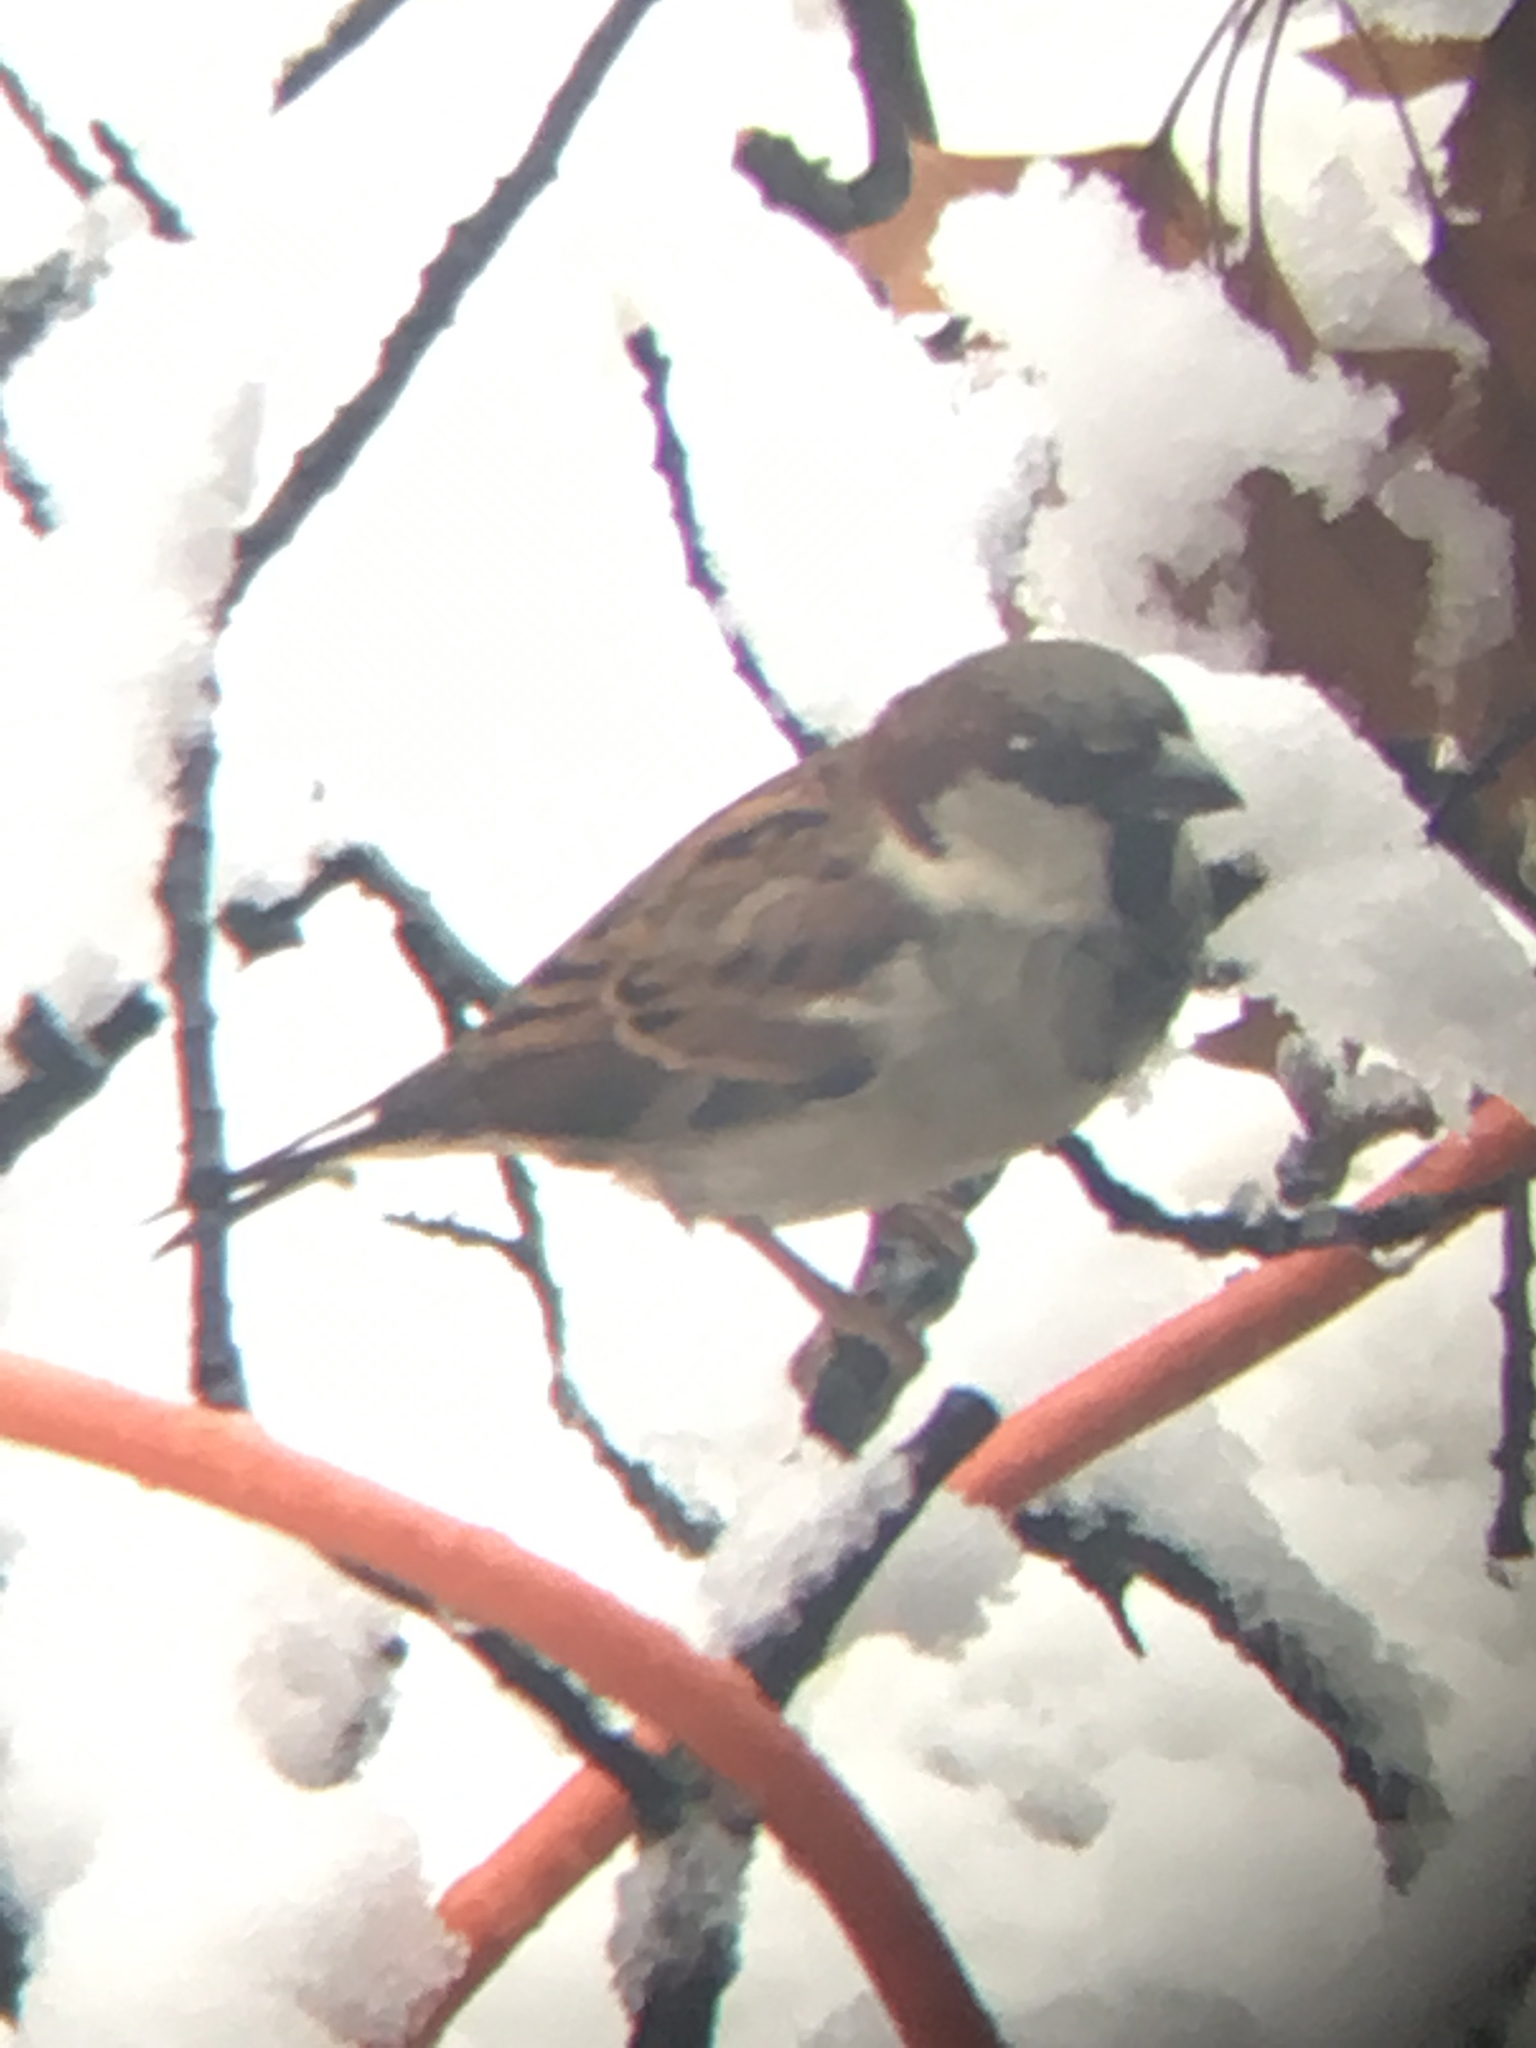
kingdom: Animalia
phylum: Chordata
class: Aves
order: Passeriformes
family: Passeridae
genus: Passer
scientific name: Passer domesticus
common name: House sparrow
